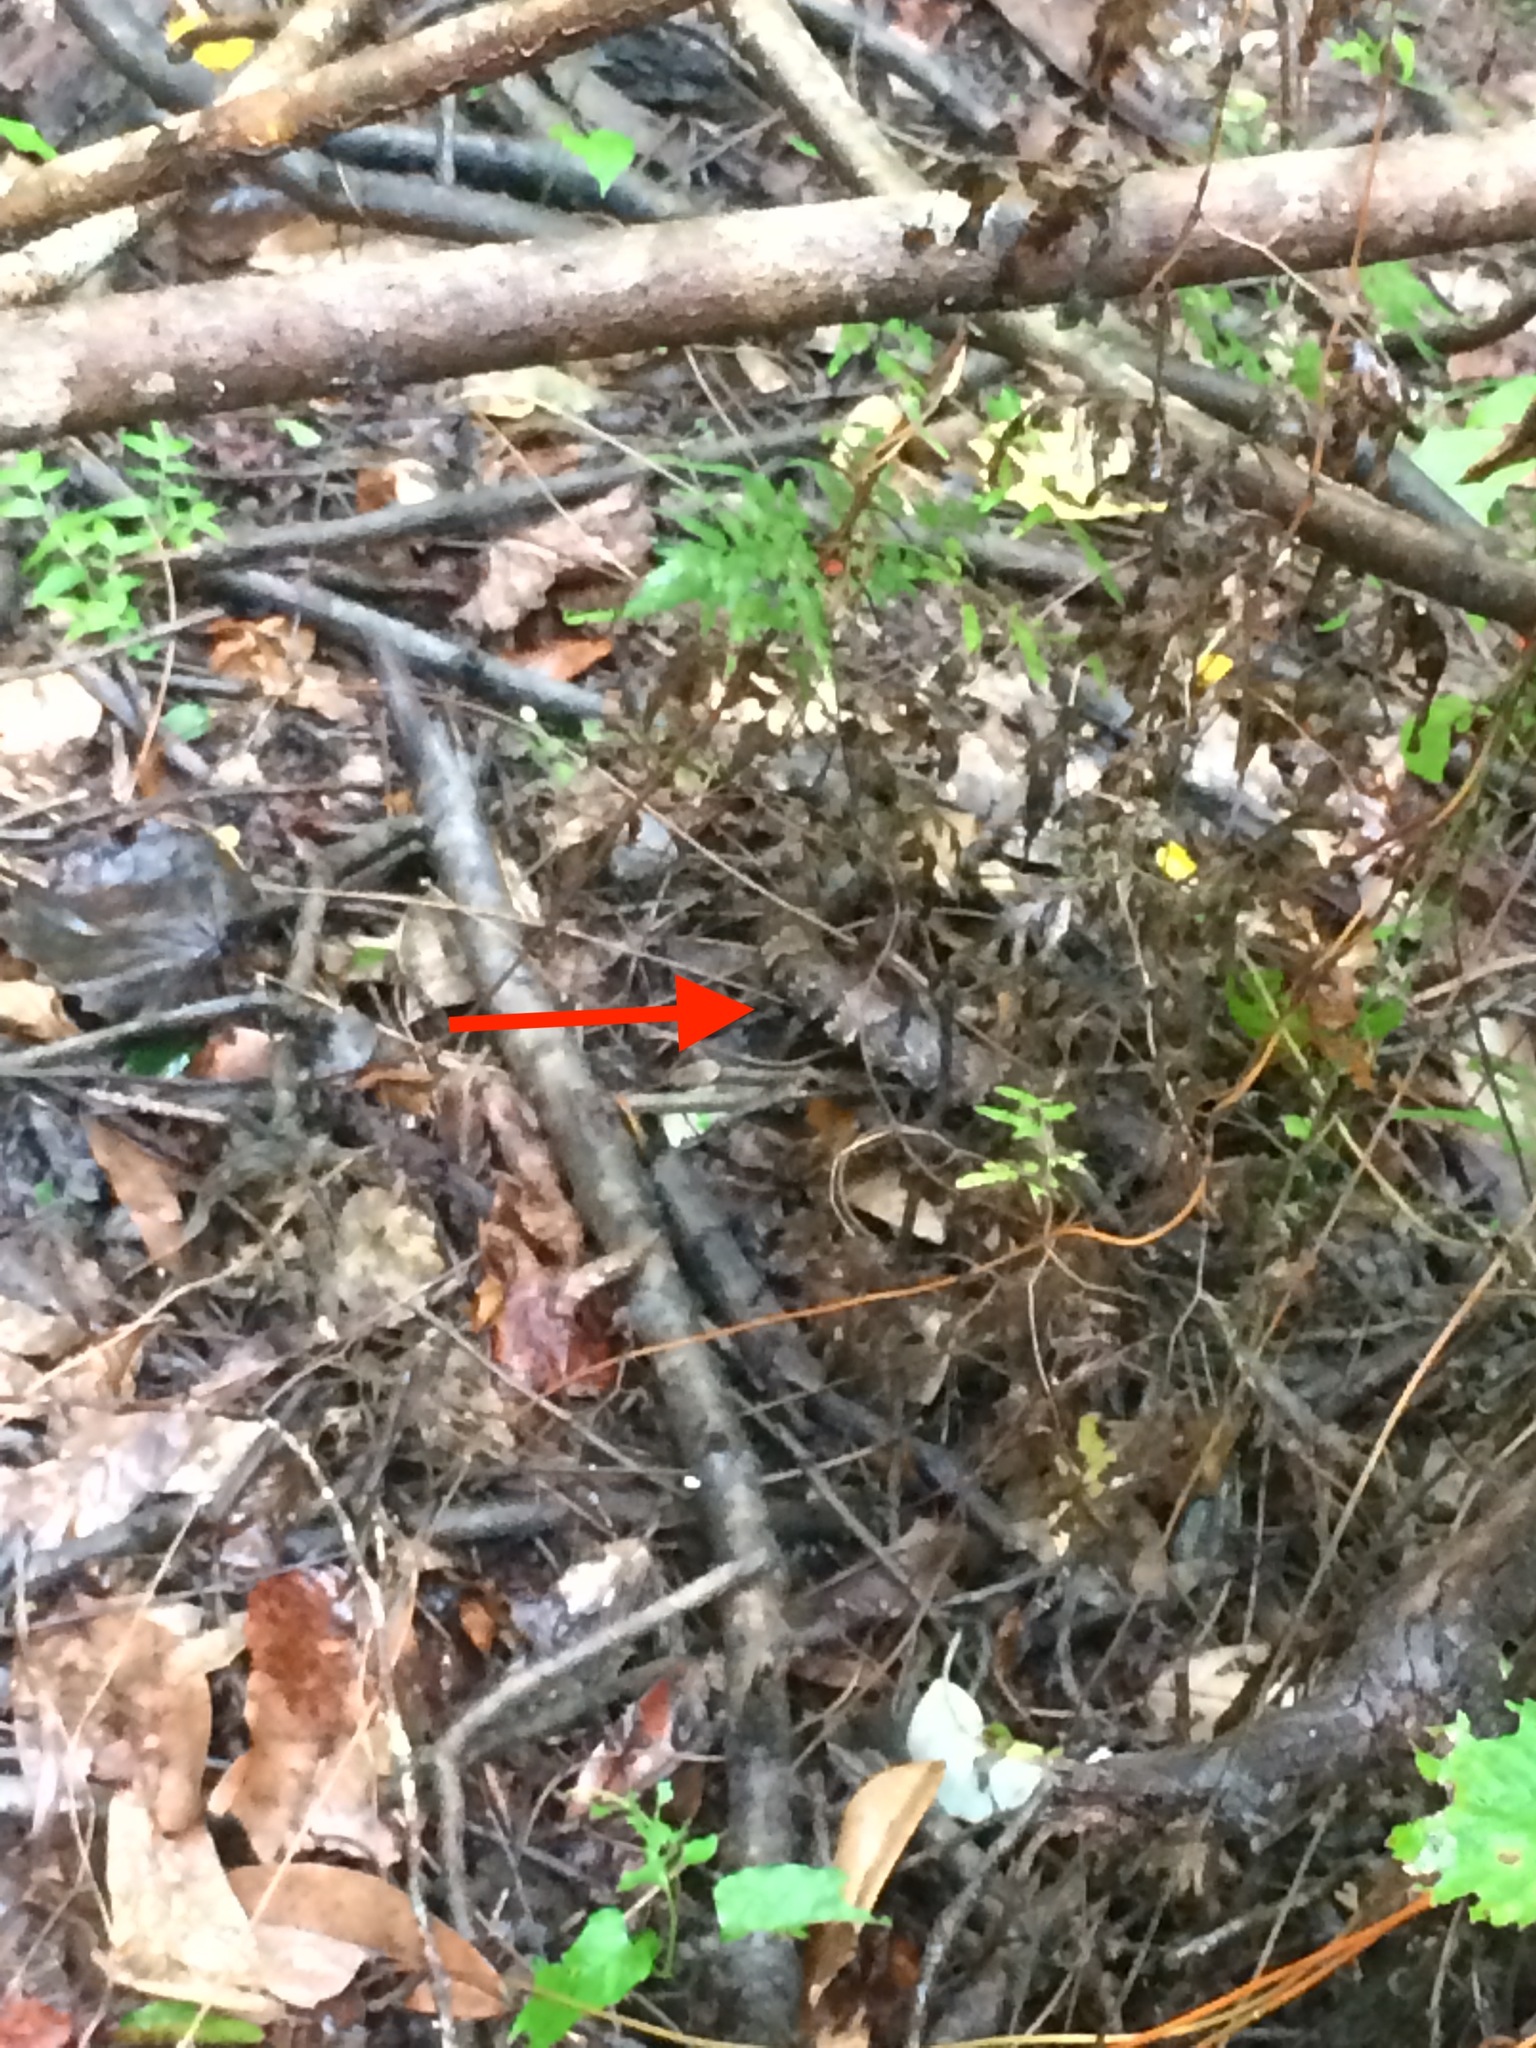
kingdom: Animalia
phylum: Chordata
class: Squamata
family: Viperidae
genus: Agkistrodon
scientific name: Agkistrodon piscivorus
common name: Cottonmouth
